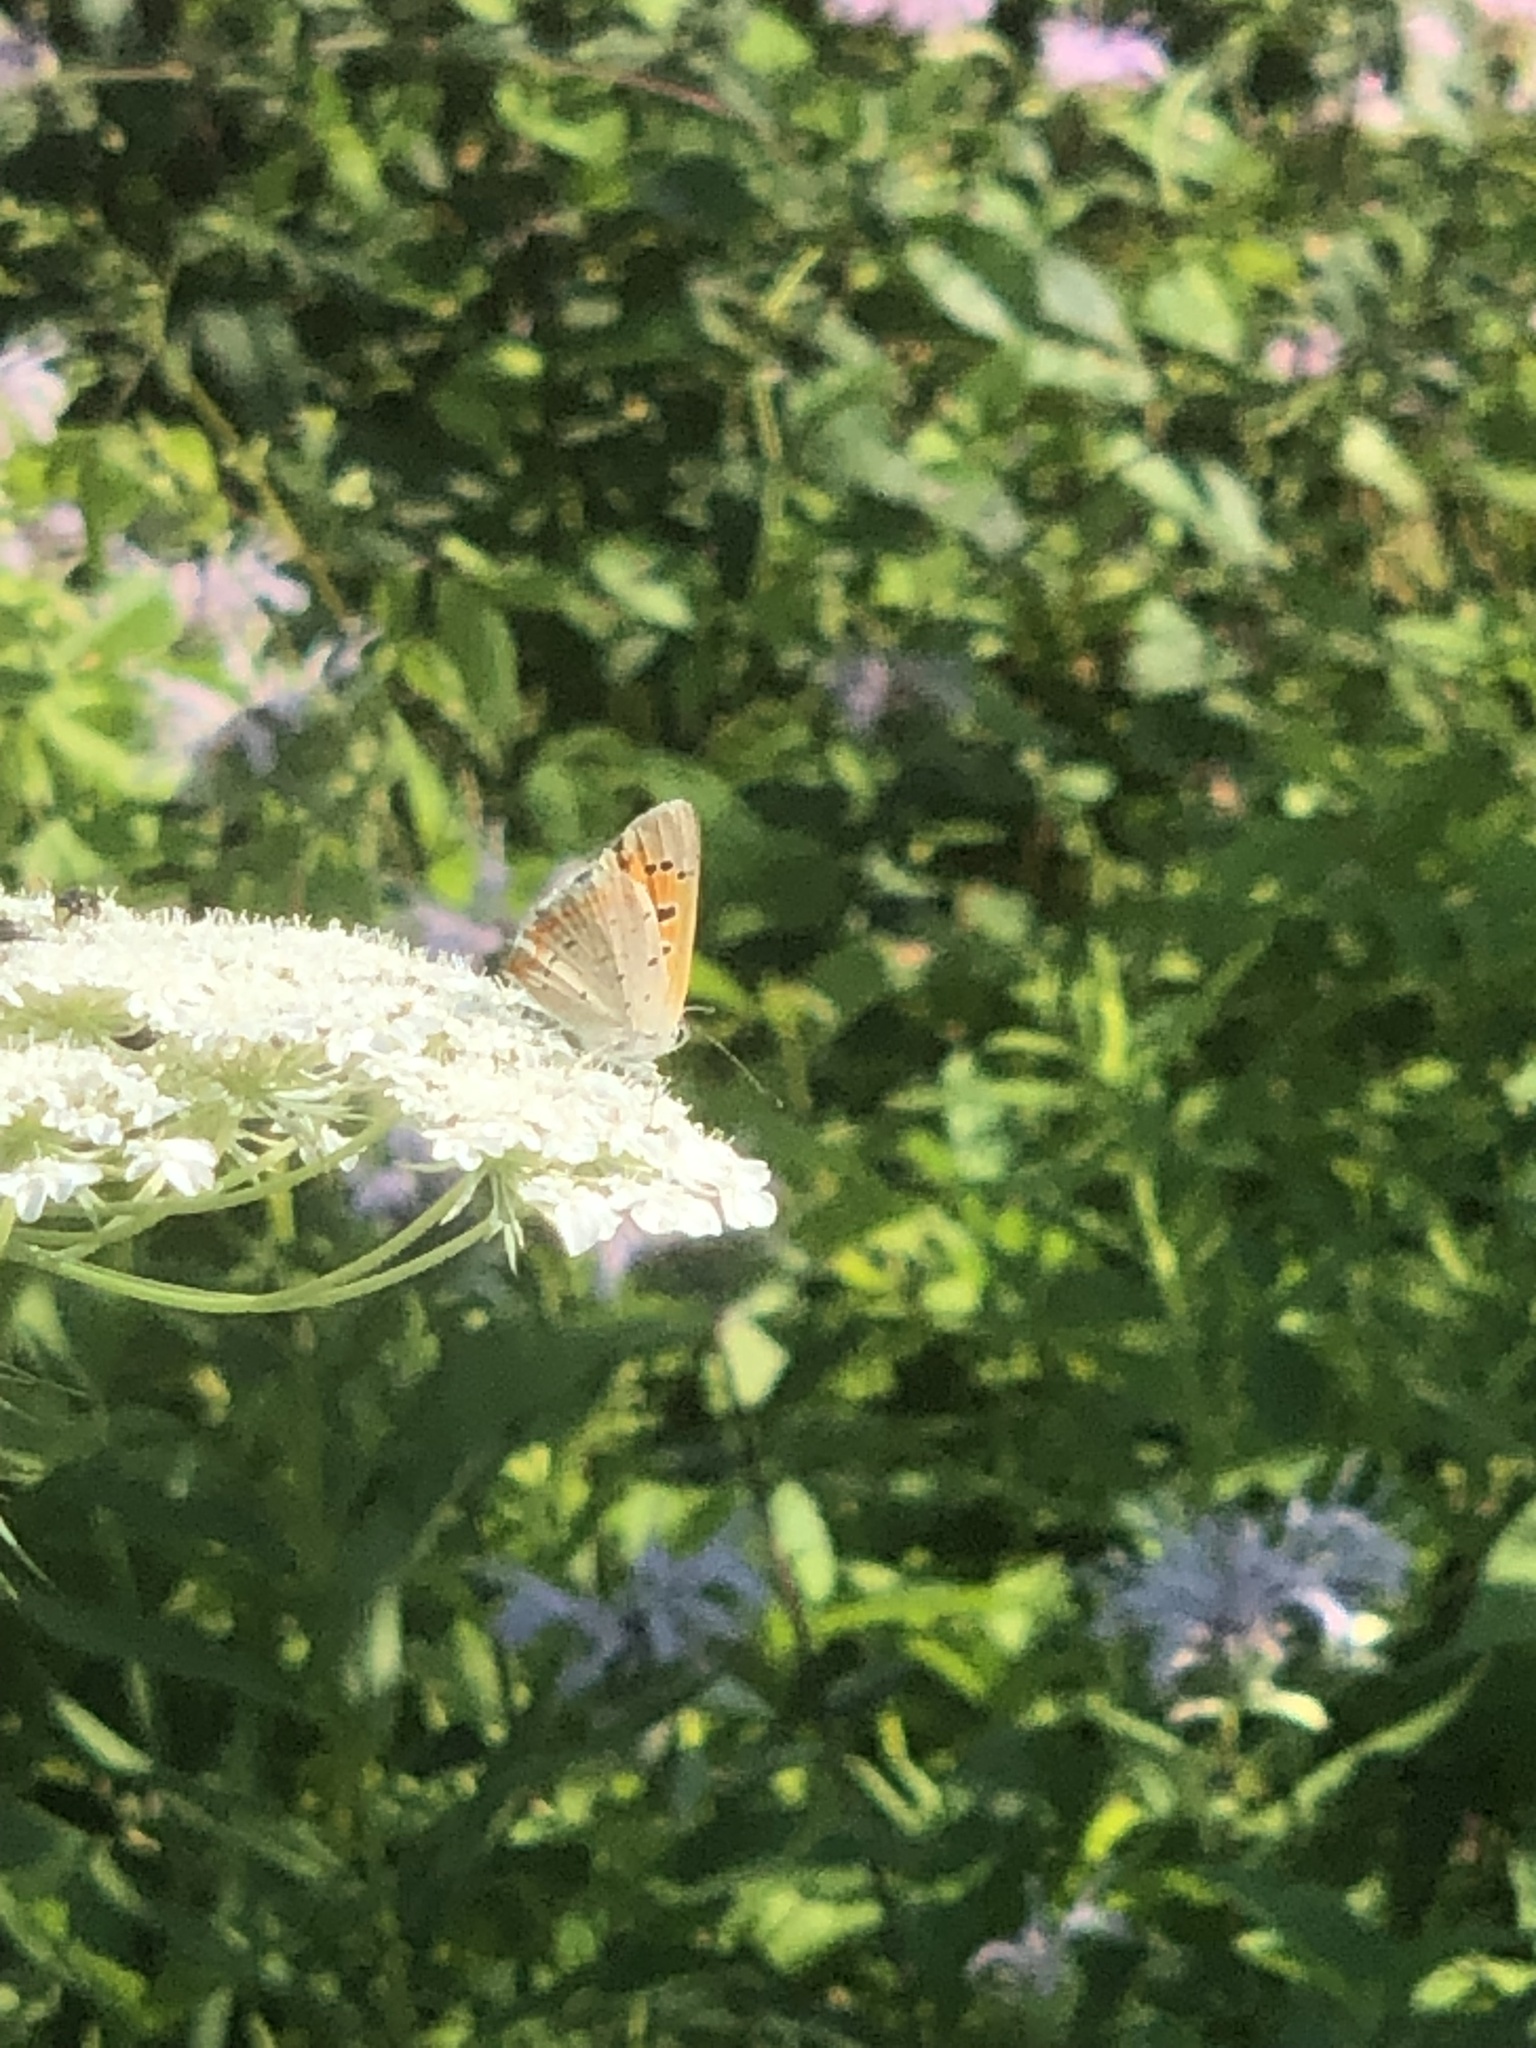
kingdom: Animalia
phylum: Arthropoda
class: Insecta
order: Lepidoptera
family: Lycaenidae
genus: Lycaena
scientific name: Lycaena hypophlaeas
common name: American copper
